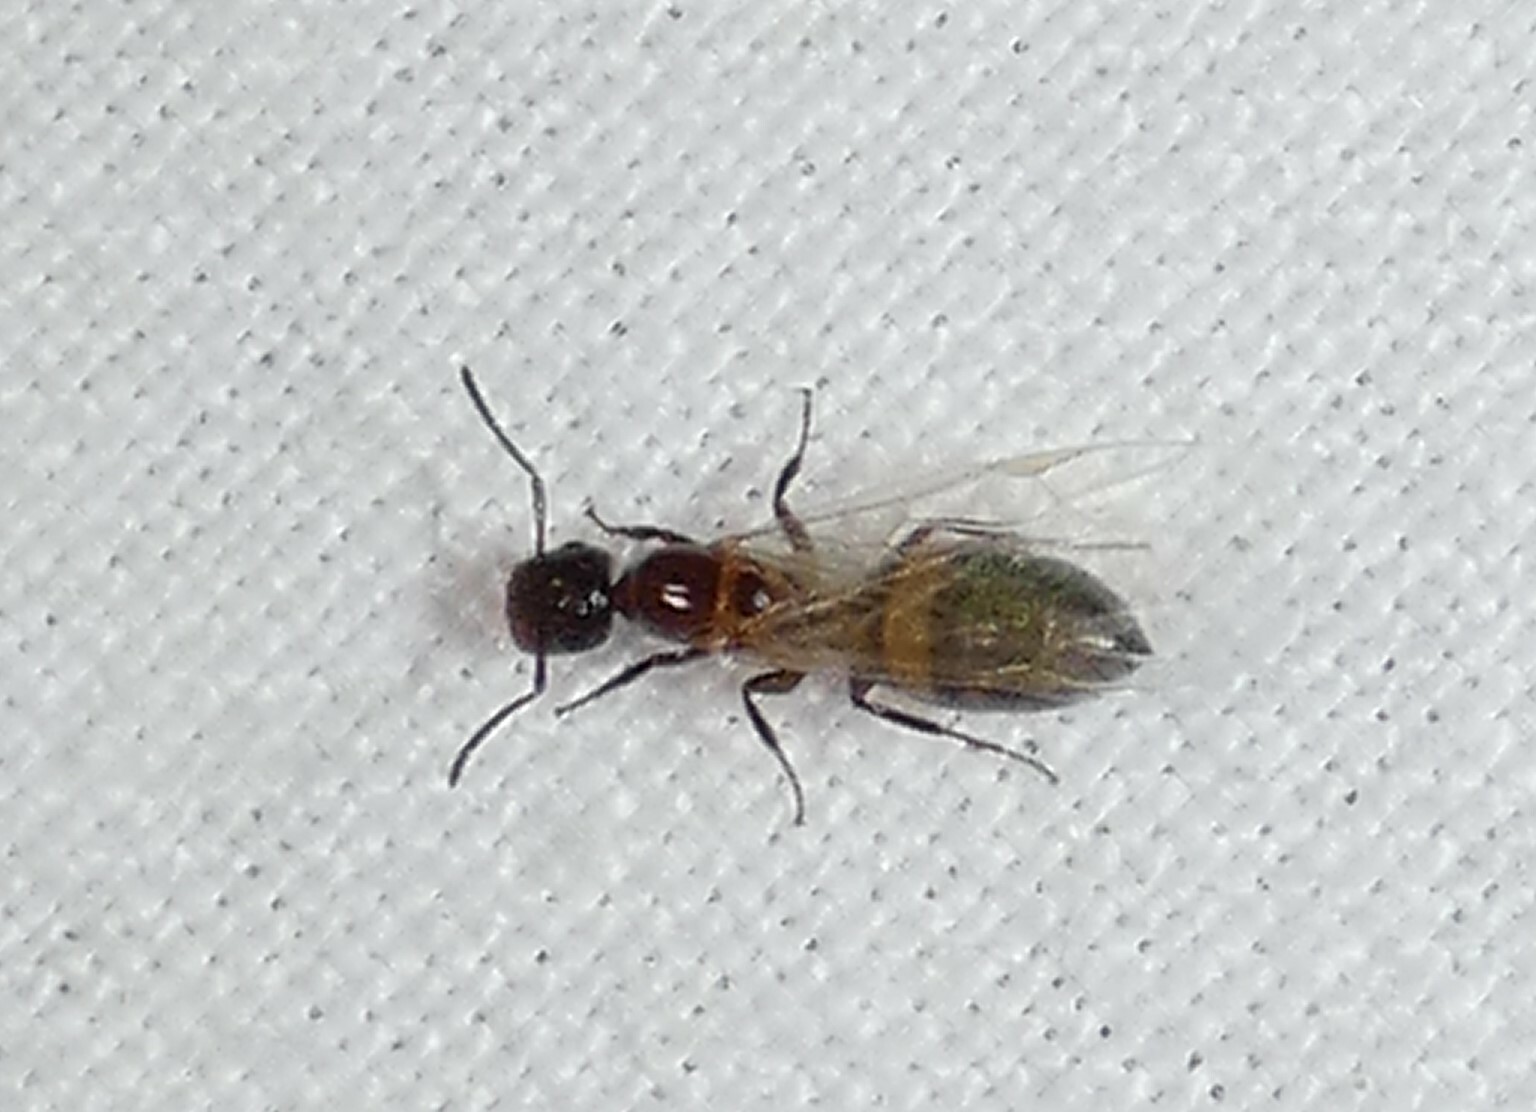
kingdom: Animalia
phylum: Arthropoda
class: Insecta
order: Hymenoptera
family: Formicidae
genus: Colobopsis
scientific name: Colobopsis impressa
